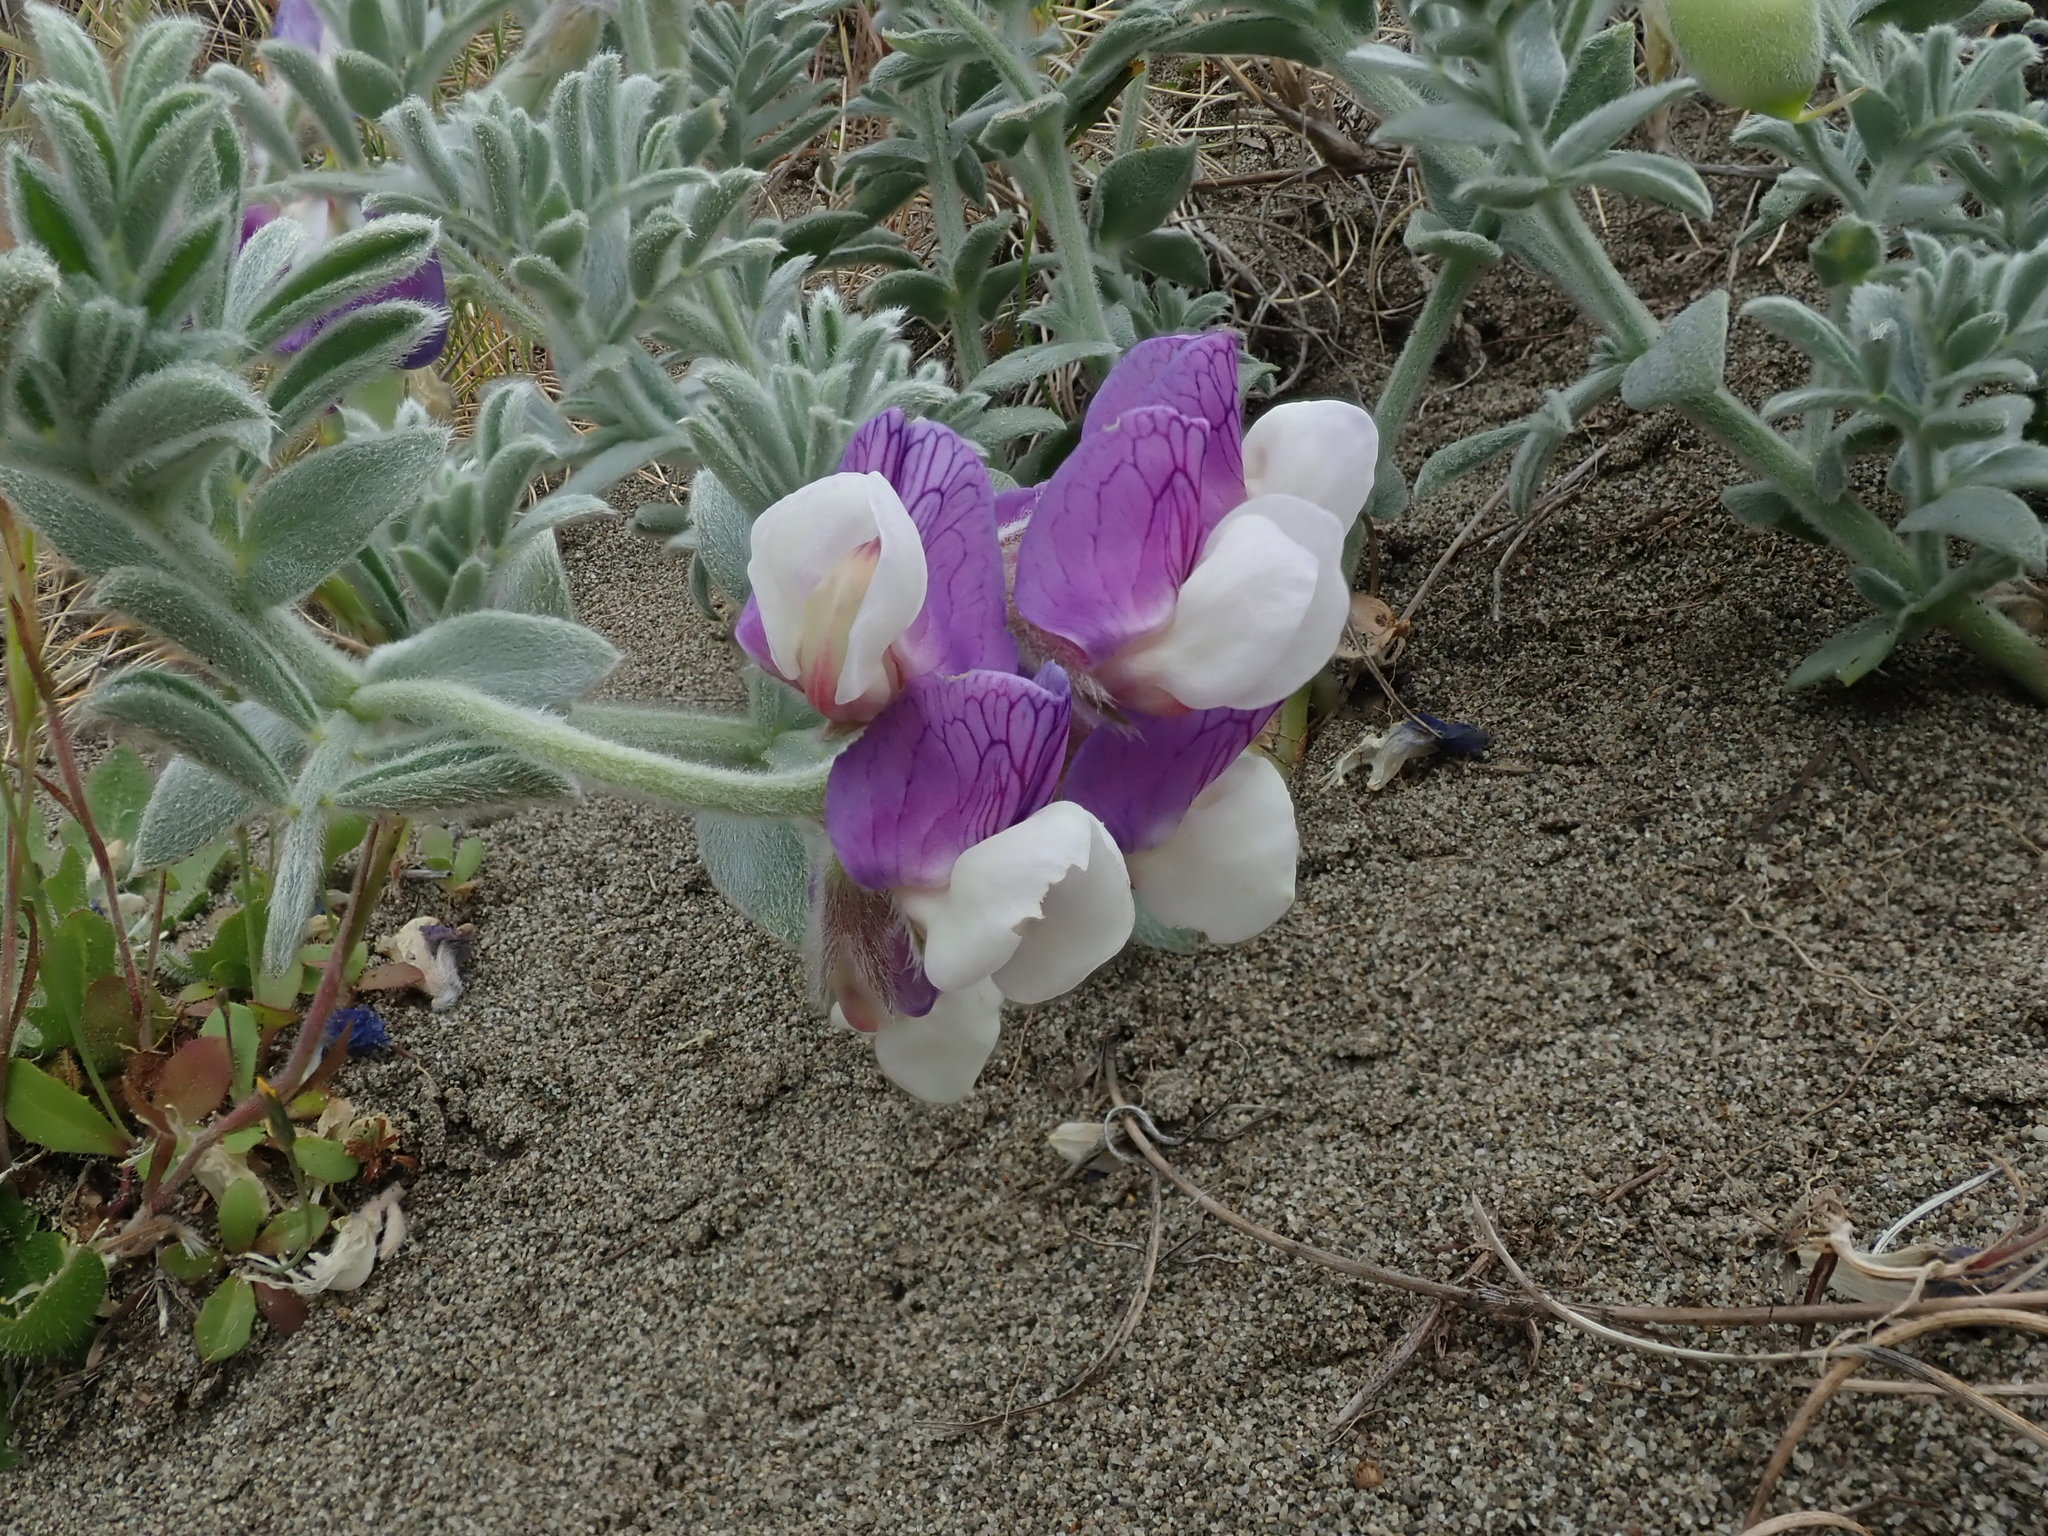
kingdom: Plantae
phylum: Tracheophyta
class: Magnoliopsida
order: Fabales
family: Fabaceae
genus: Lathyrus
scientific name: Lathyrus littoralis
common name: Dune sweet pea
